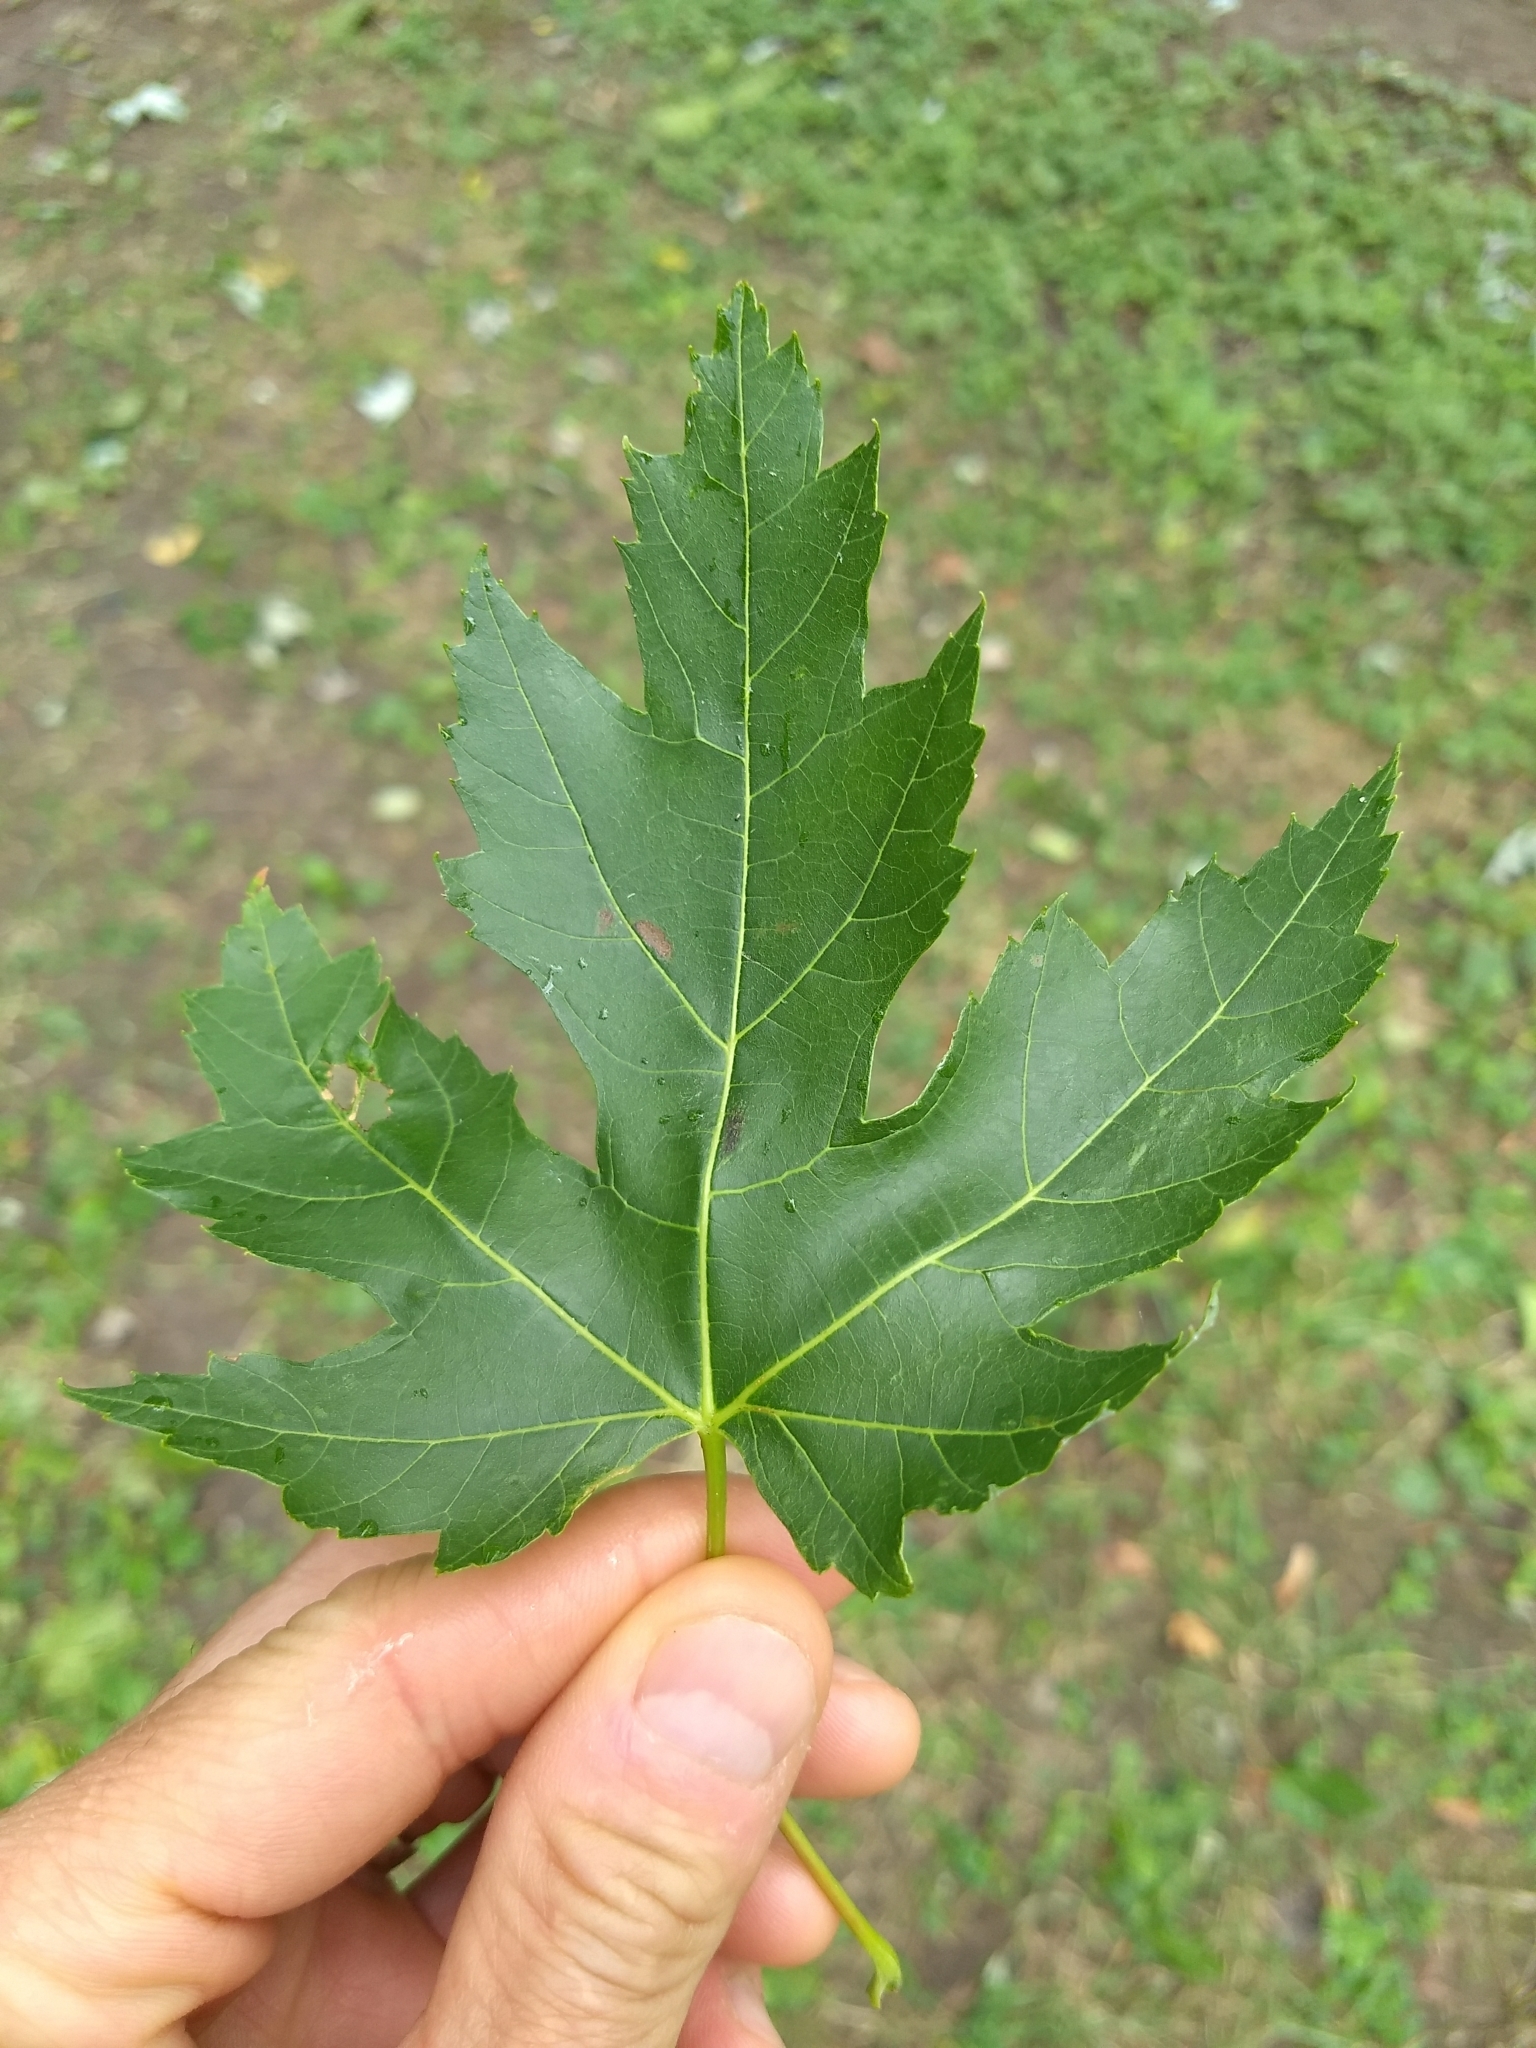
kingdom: Plantae
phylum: Tracheophyta
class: Magnoliopsida
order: Sapindales
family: Sapindaceae
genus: Acer
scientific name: Acer saccharinum
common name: Silver maple
